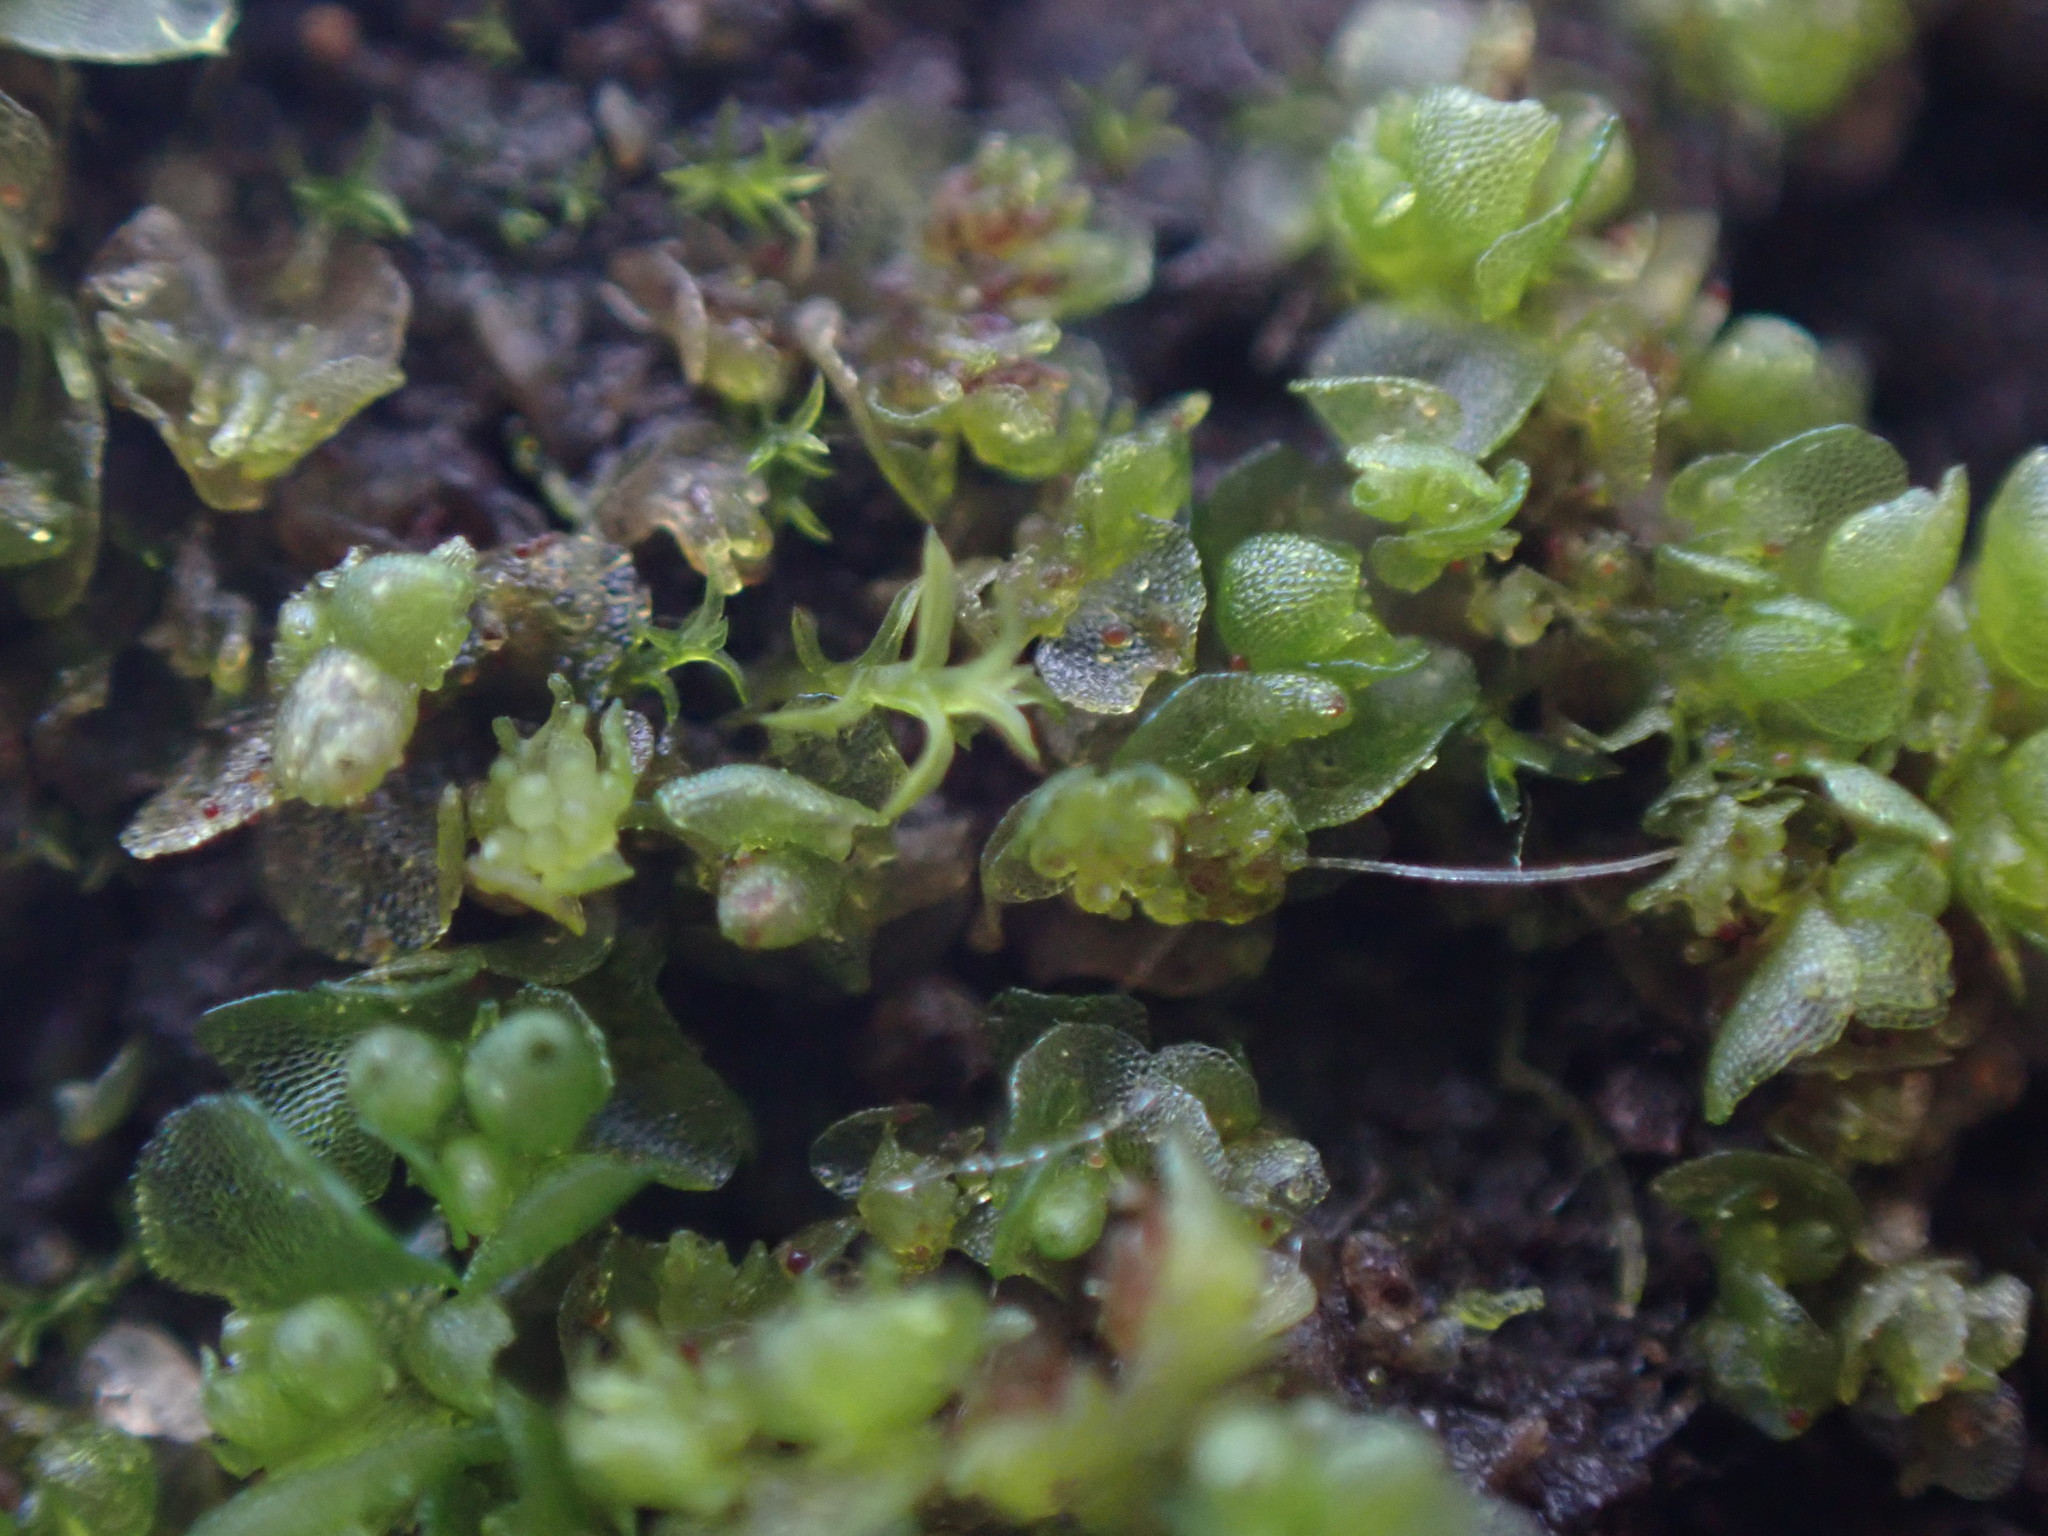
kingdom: Plantae
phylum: Marchantiophyta
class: Marchantiopsida
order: Sphaerocarpales
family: Sphaerocarpaceae
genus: Sphaerocarpos
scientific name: Sphaerocarpos texanus
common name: Texas balloonwort
